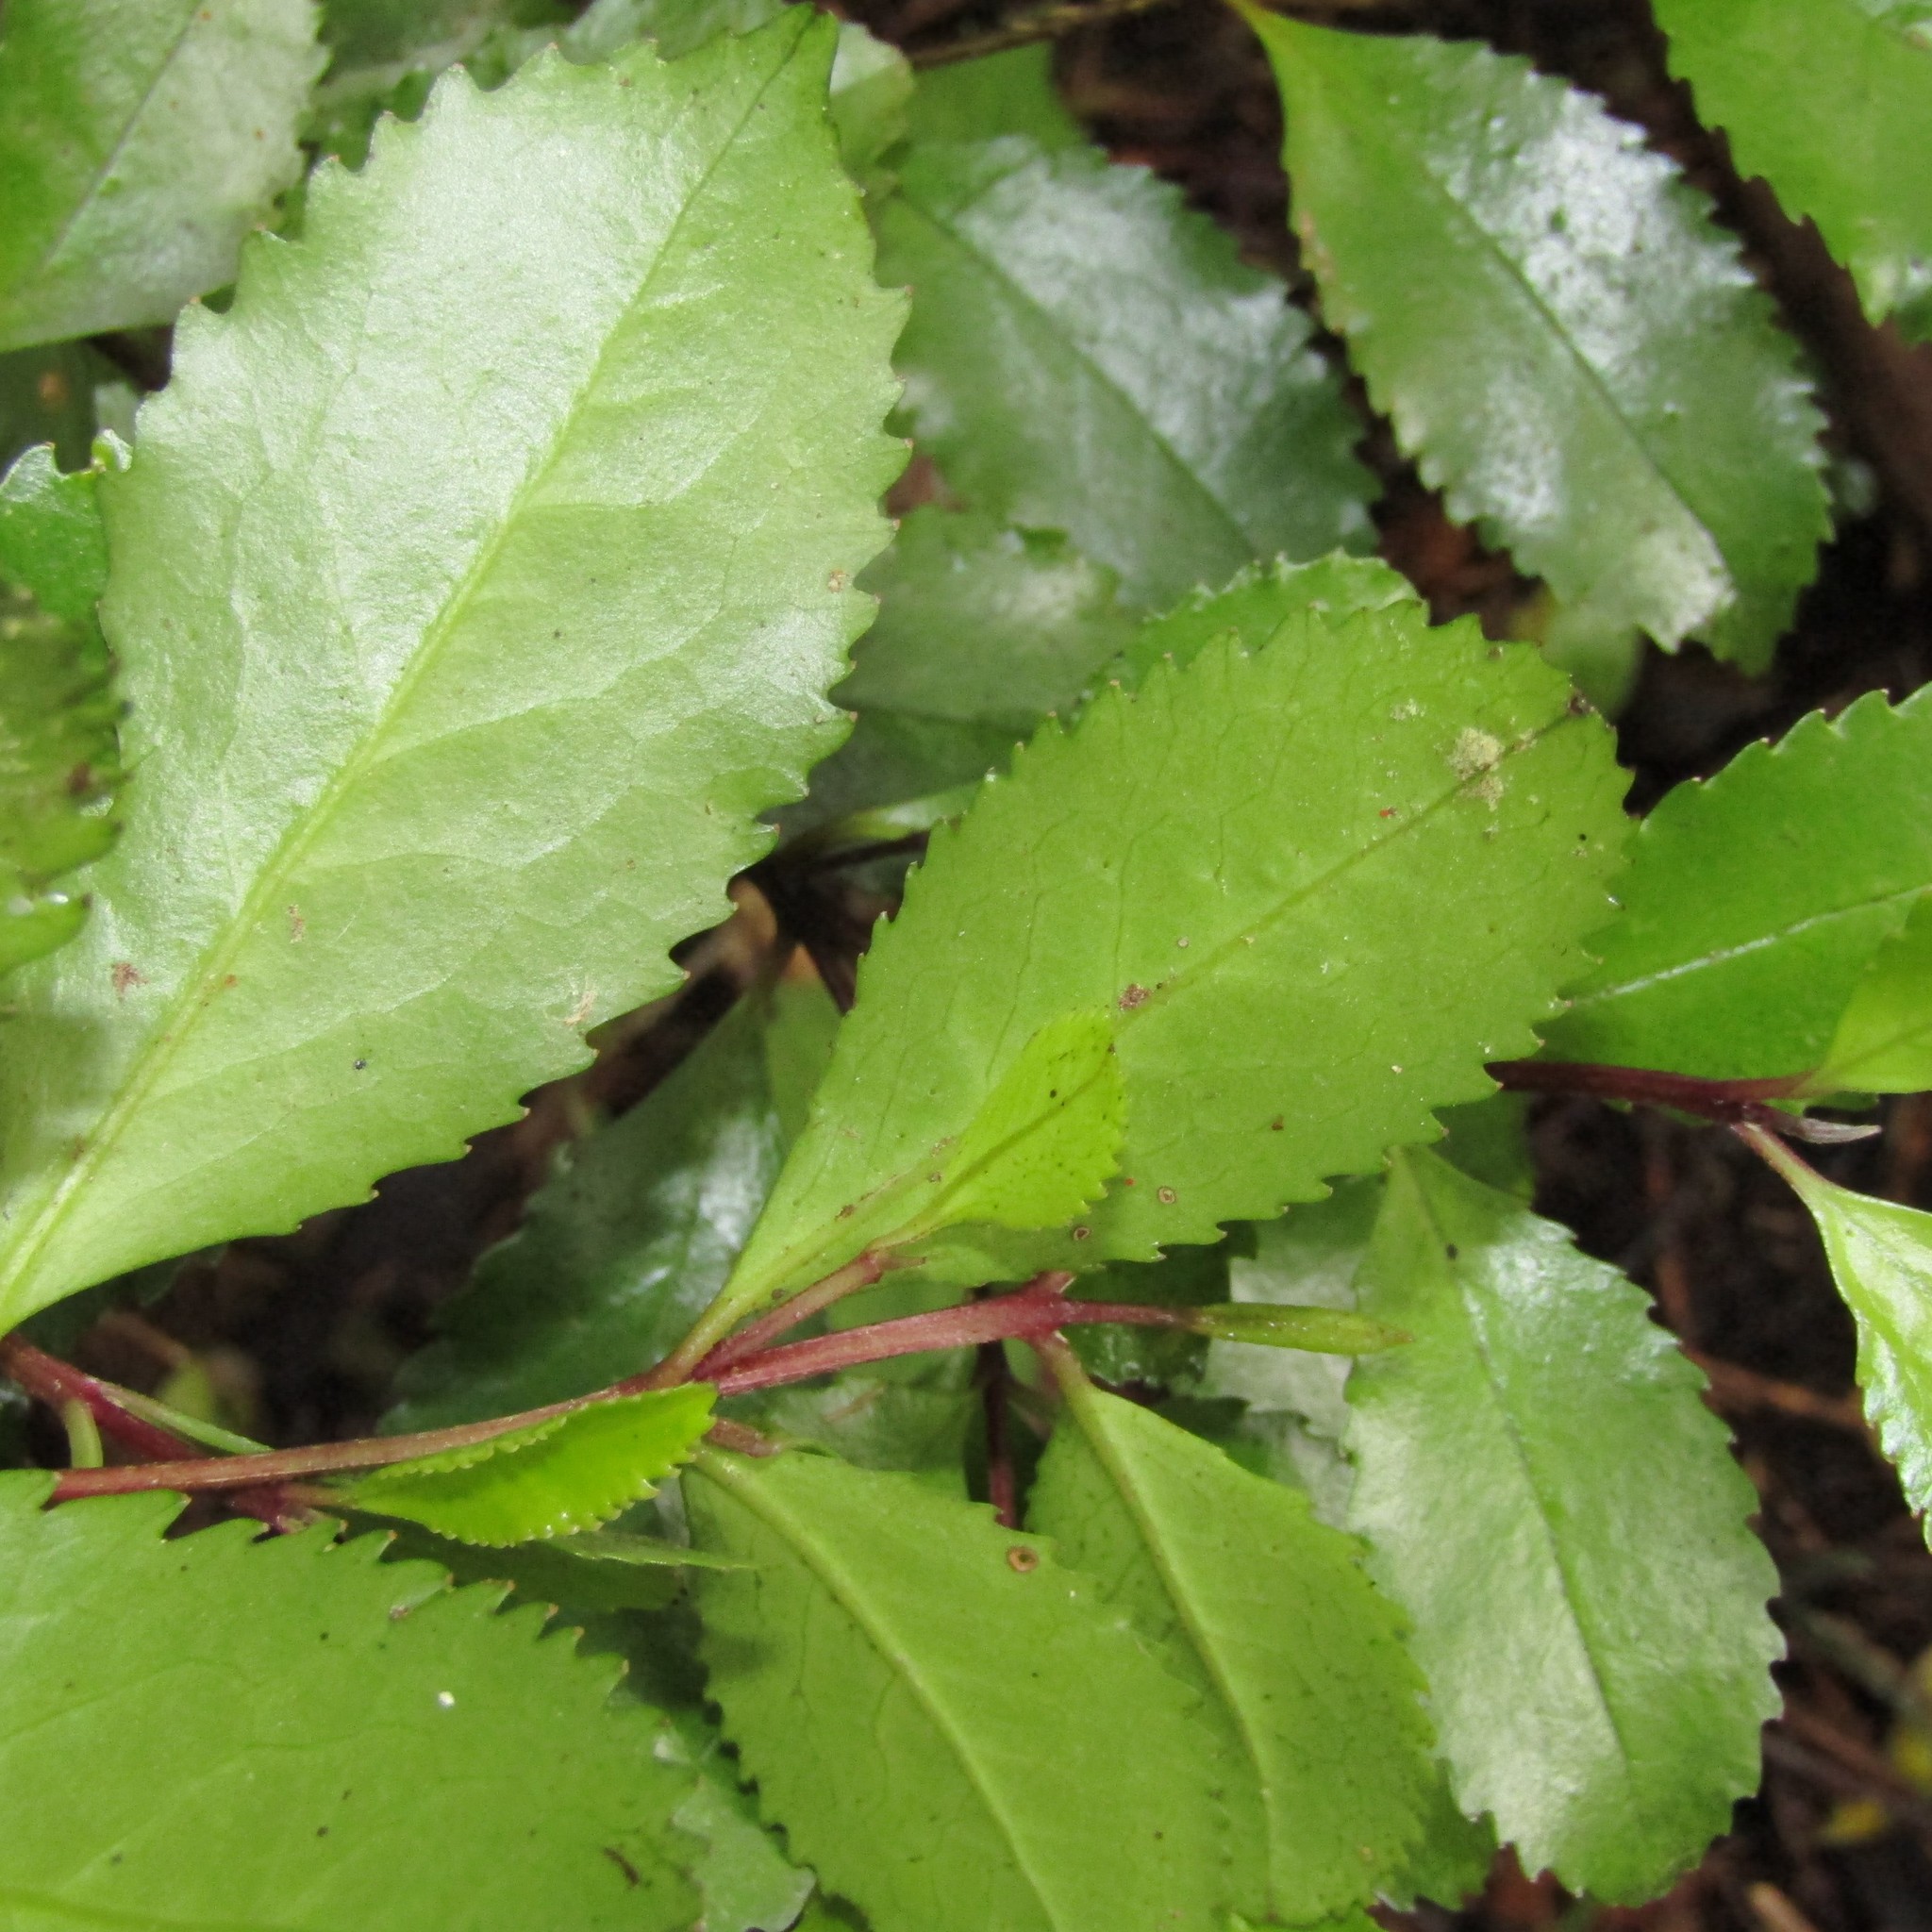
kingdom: Plantae
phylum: Tracheophyta
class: Magnoliopsida
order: Laurales
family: Atherospermataceae
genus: Laurelia
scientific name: Laurelia novae-zelandiae
